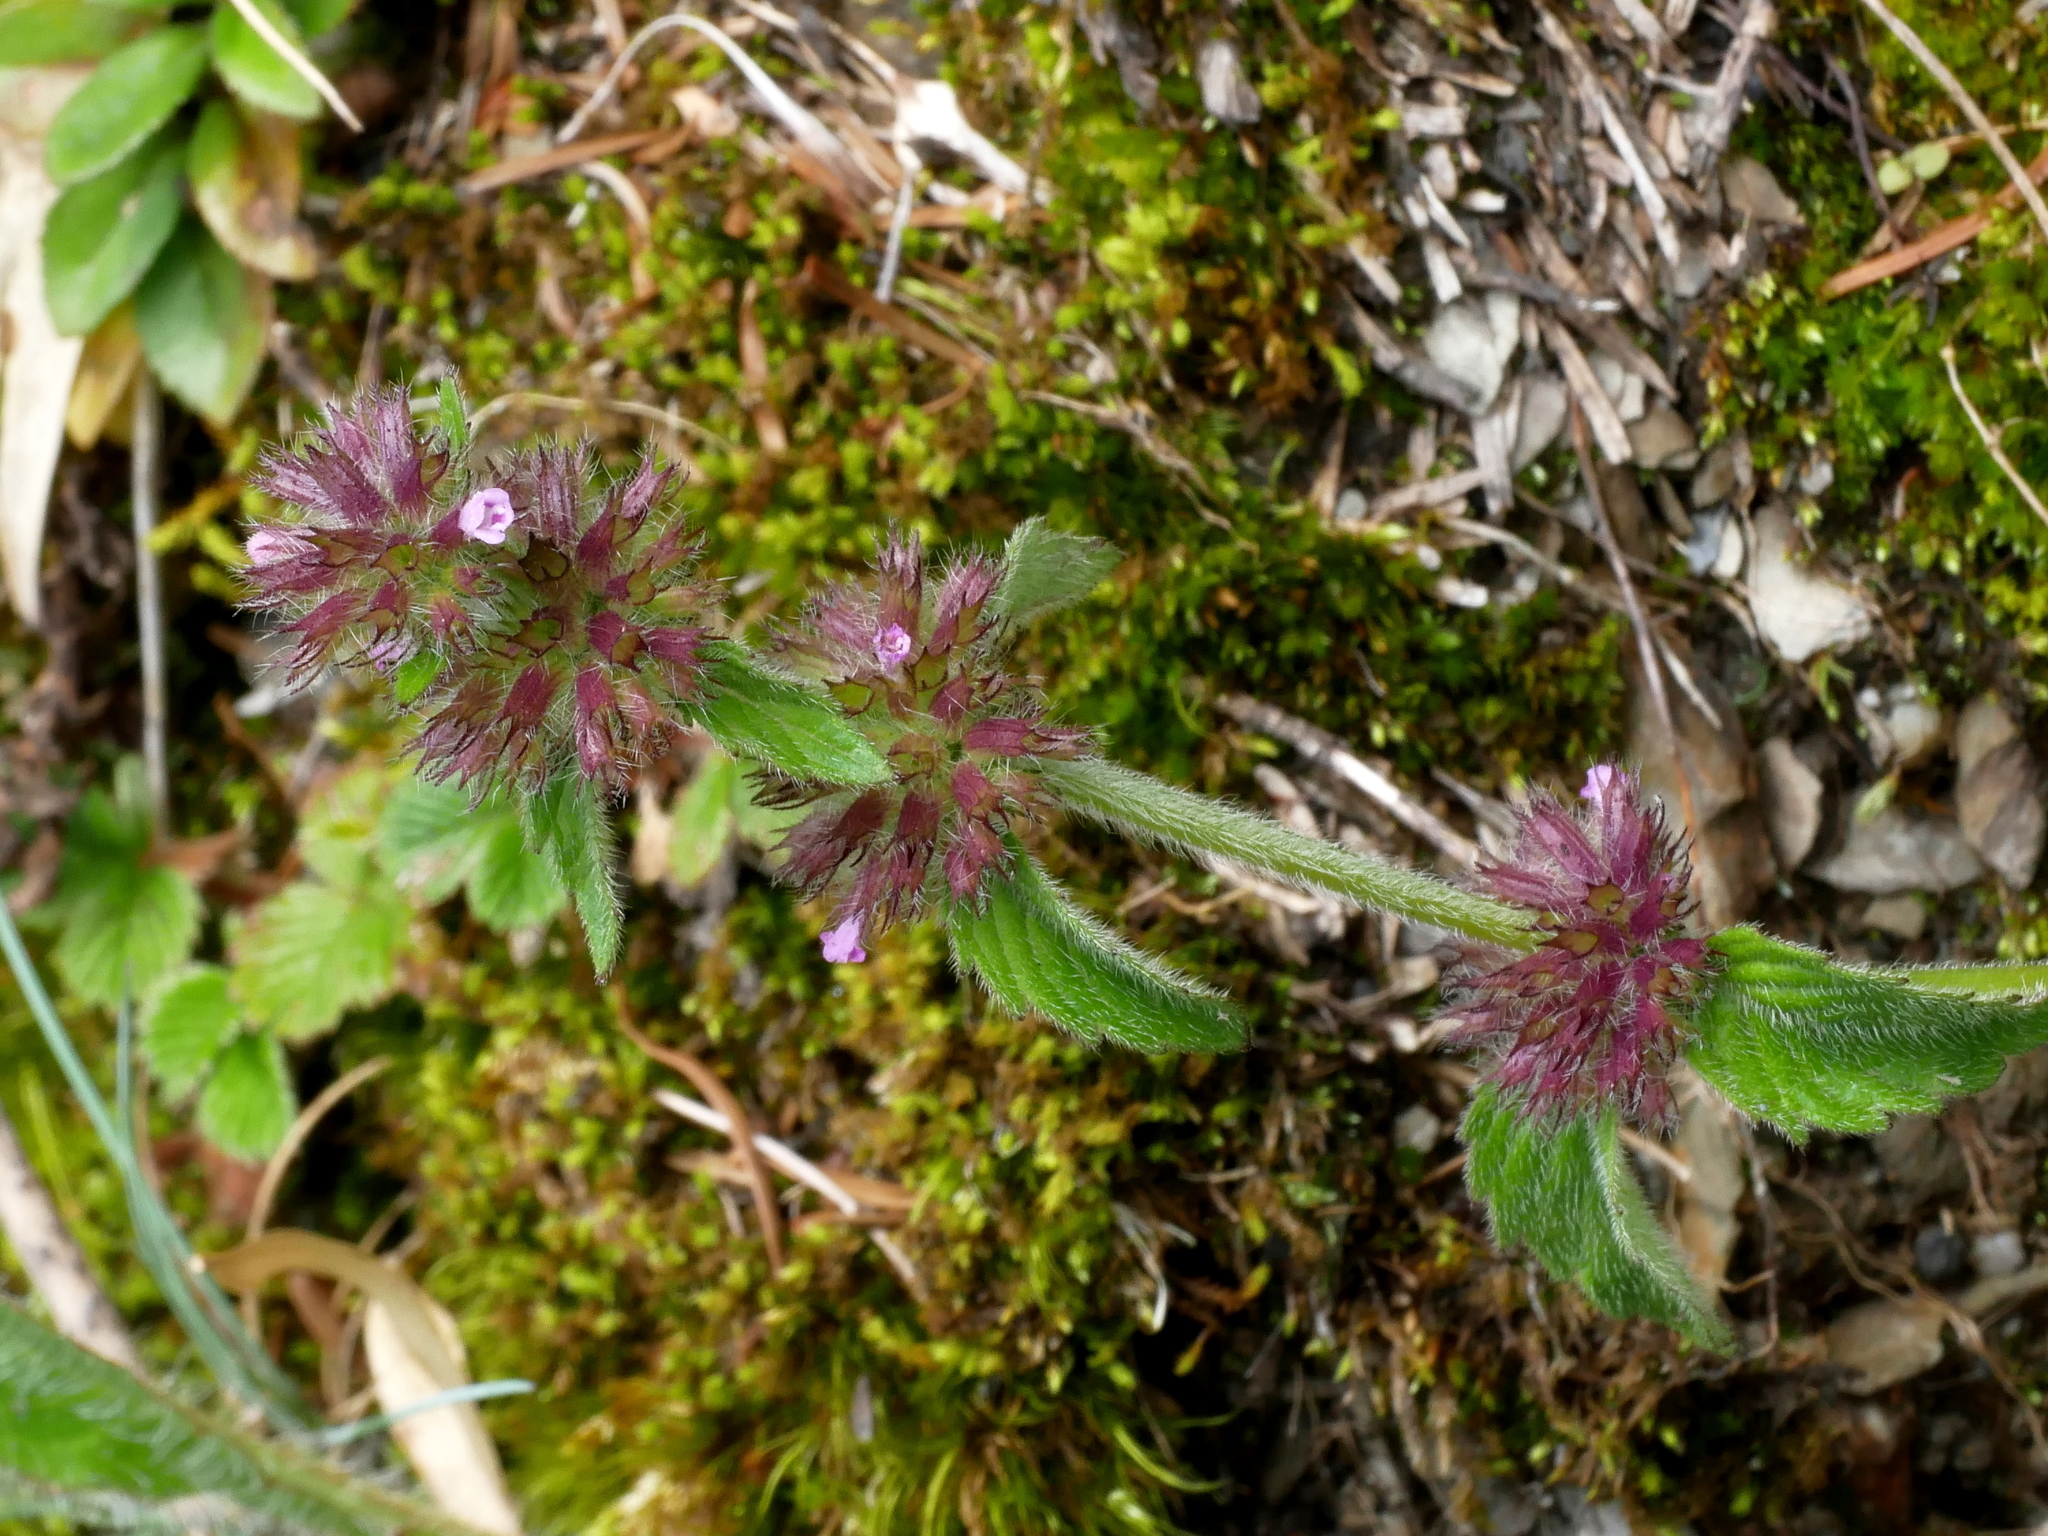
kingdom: Plantae
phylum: Tracheophyta
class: Magnoliopsida
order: Lamiales
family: Lamiaceae
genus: Clinopodium
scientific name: Clinopodium chinense
